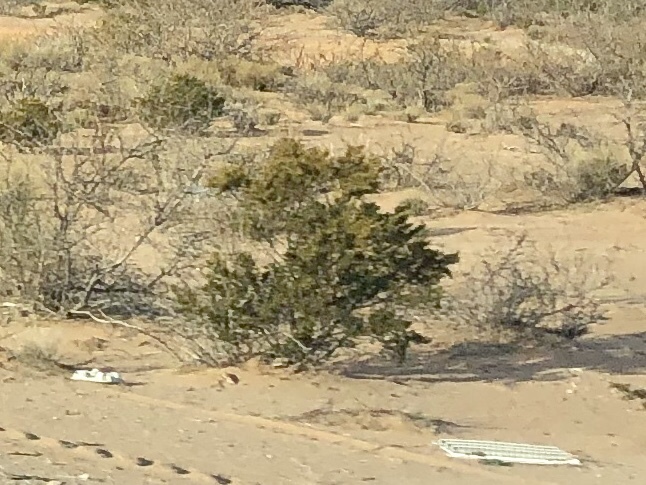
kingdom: Plantae
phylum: Tracheophyta
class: Magnoliopsida
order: Zygophyllales
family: Zygophyllaceae
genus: Larrea
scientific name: Larrea tridentata
